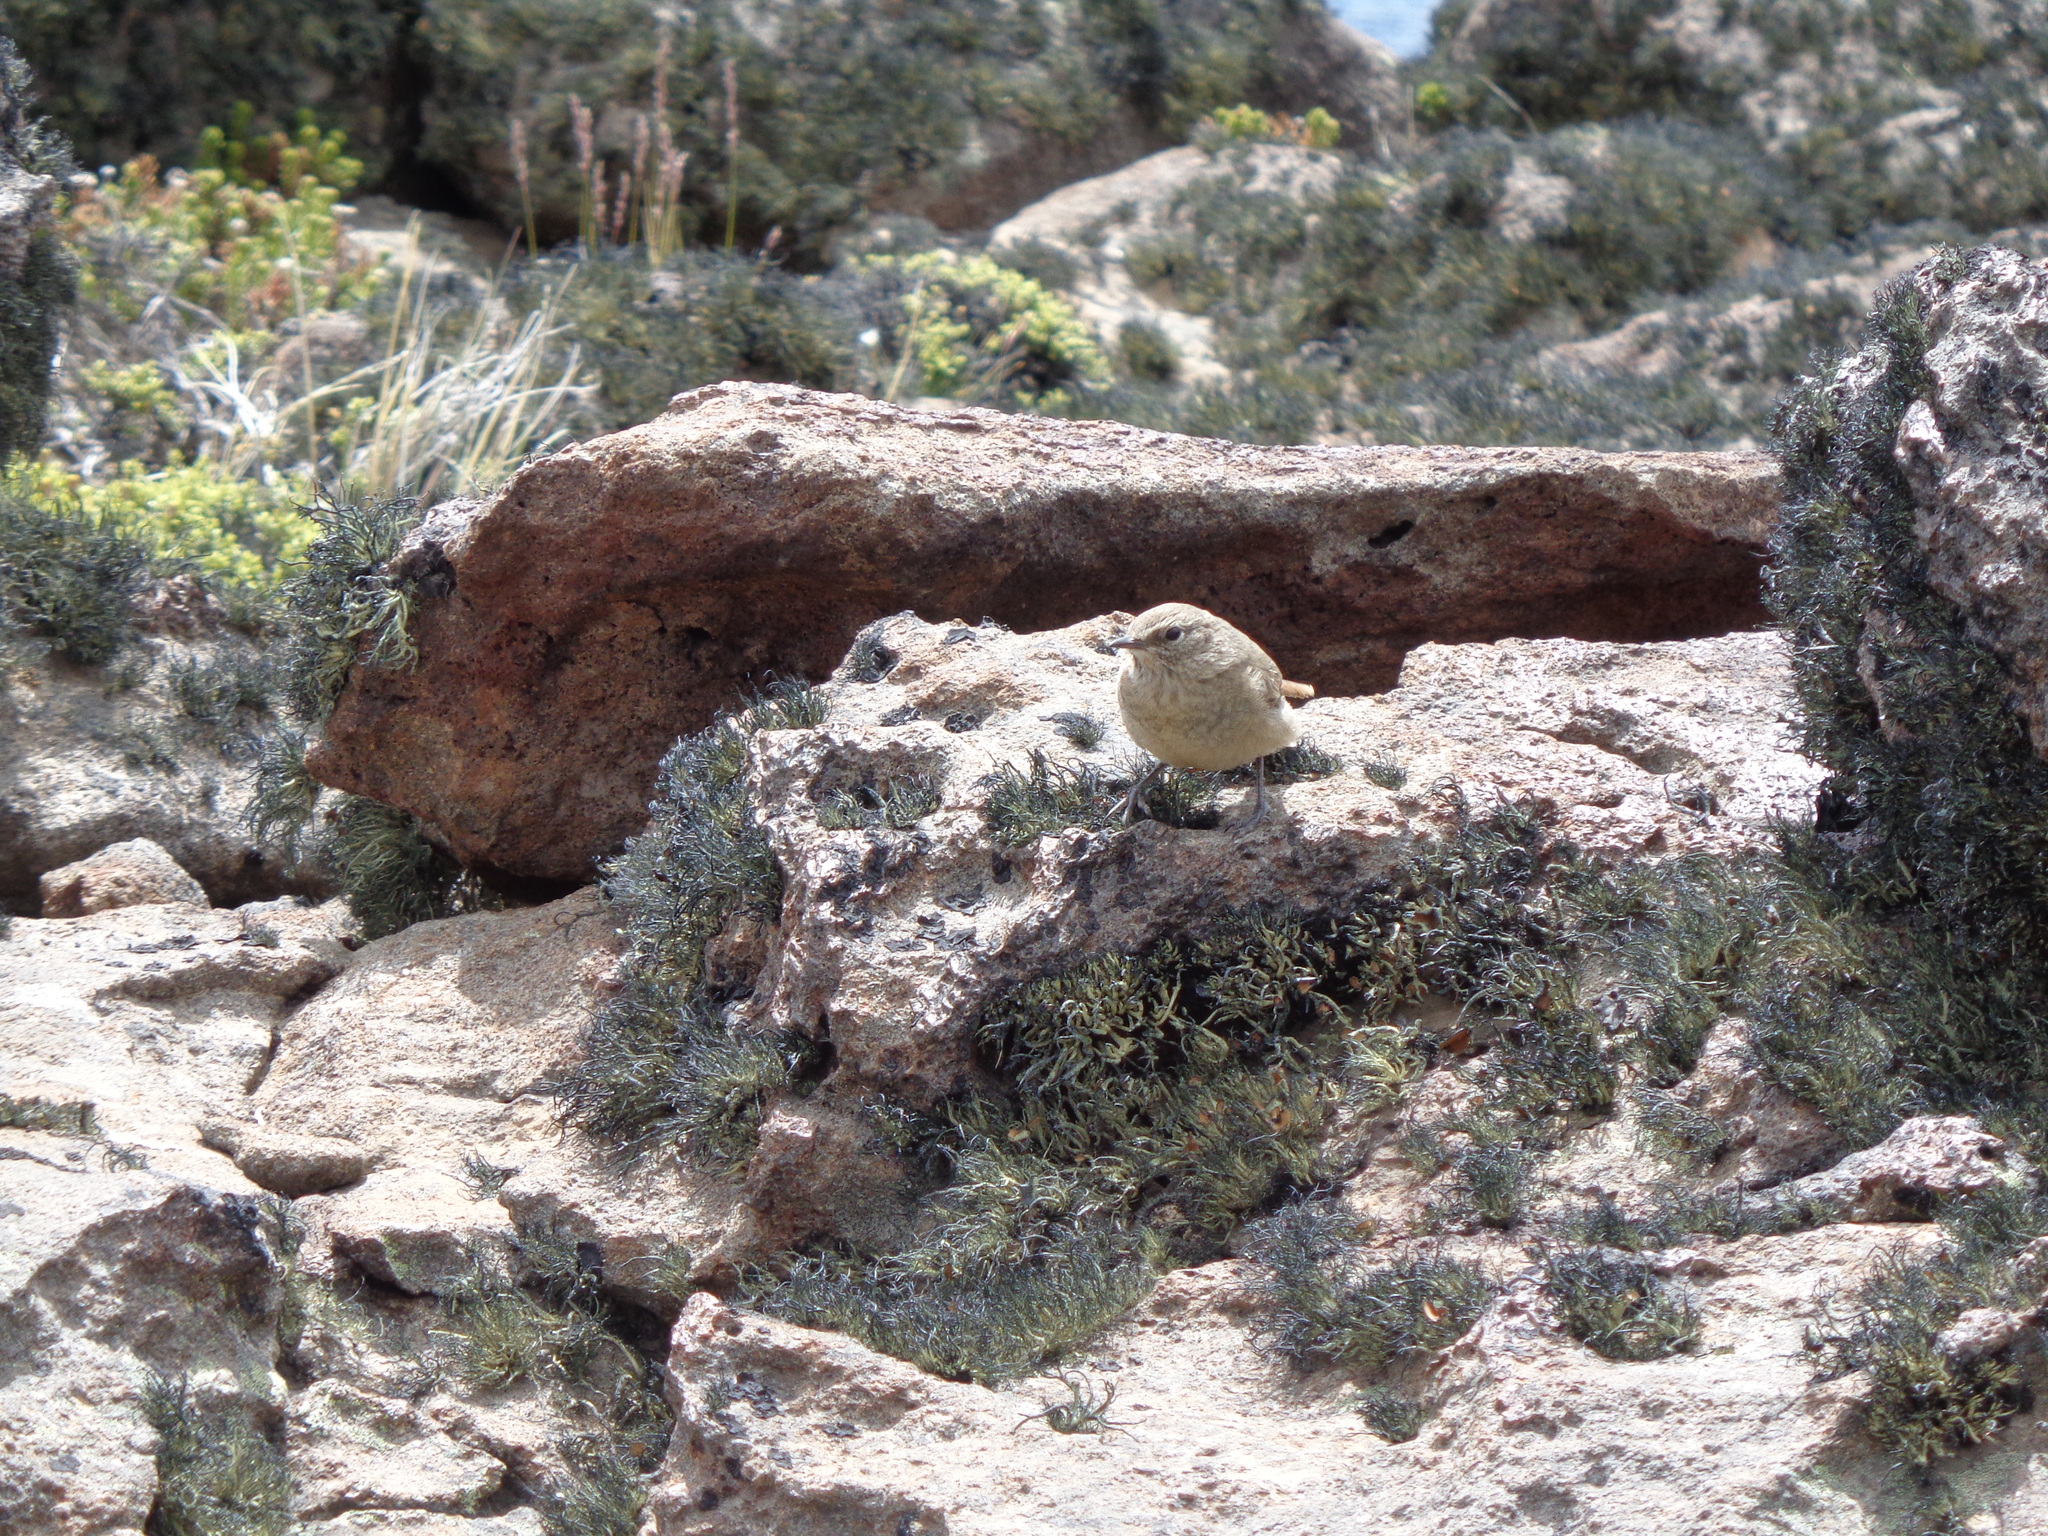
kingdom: Animalia
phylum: Chordata
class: Aves
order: Passeriformes
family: Furnariidae
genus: Asthenes
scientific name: Asthenes modesta
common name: Cordilleran canastero
